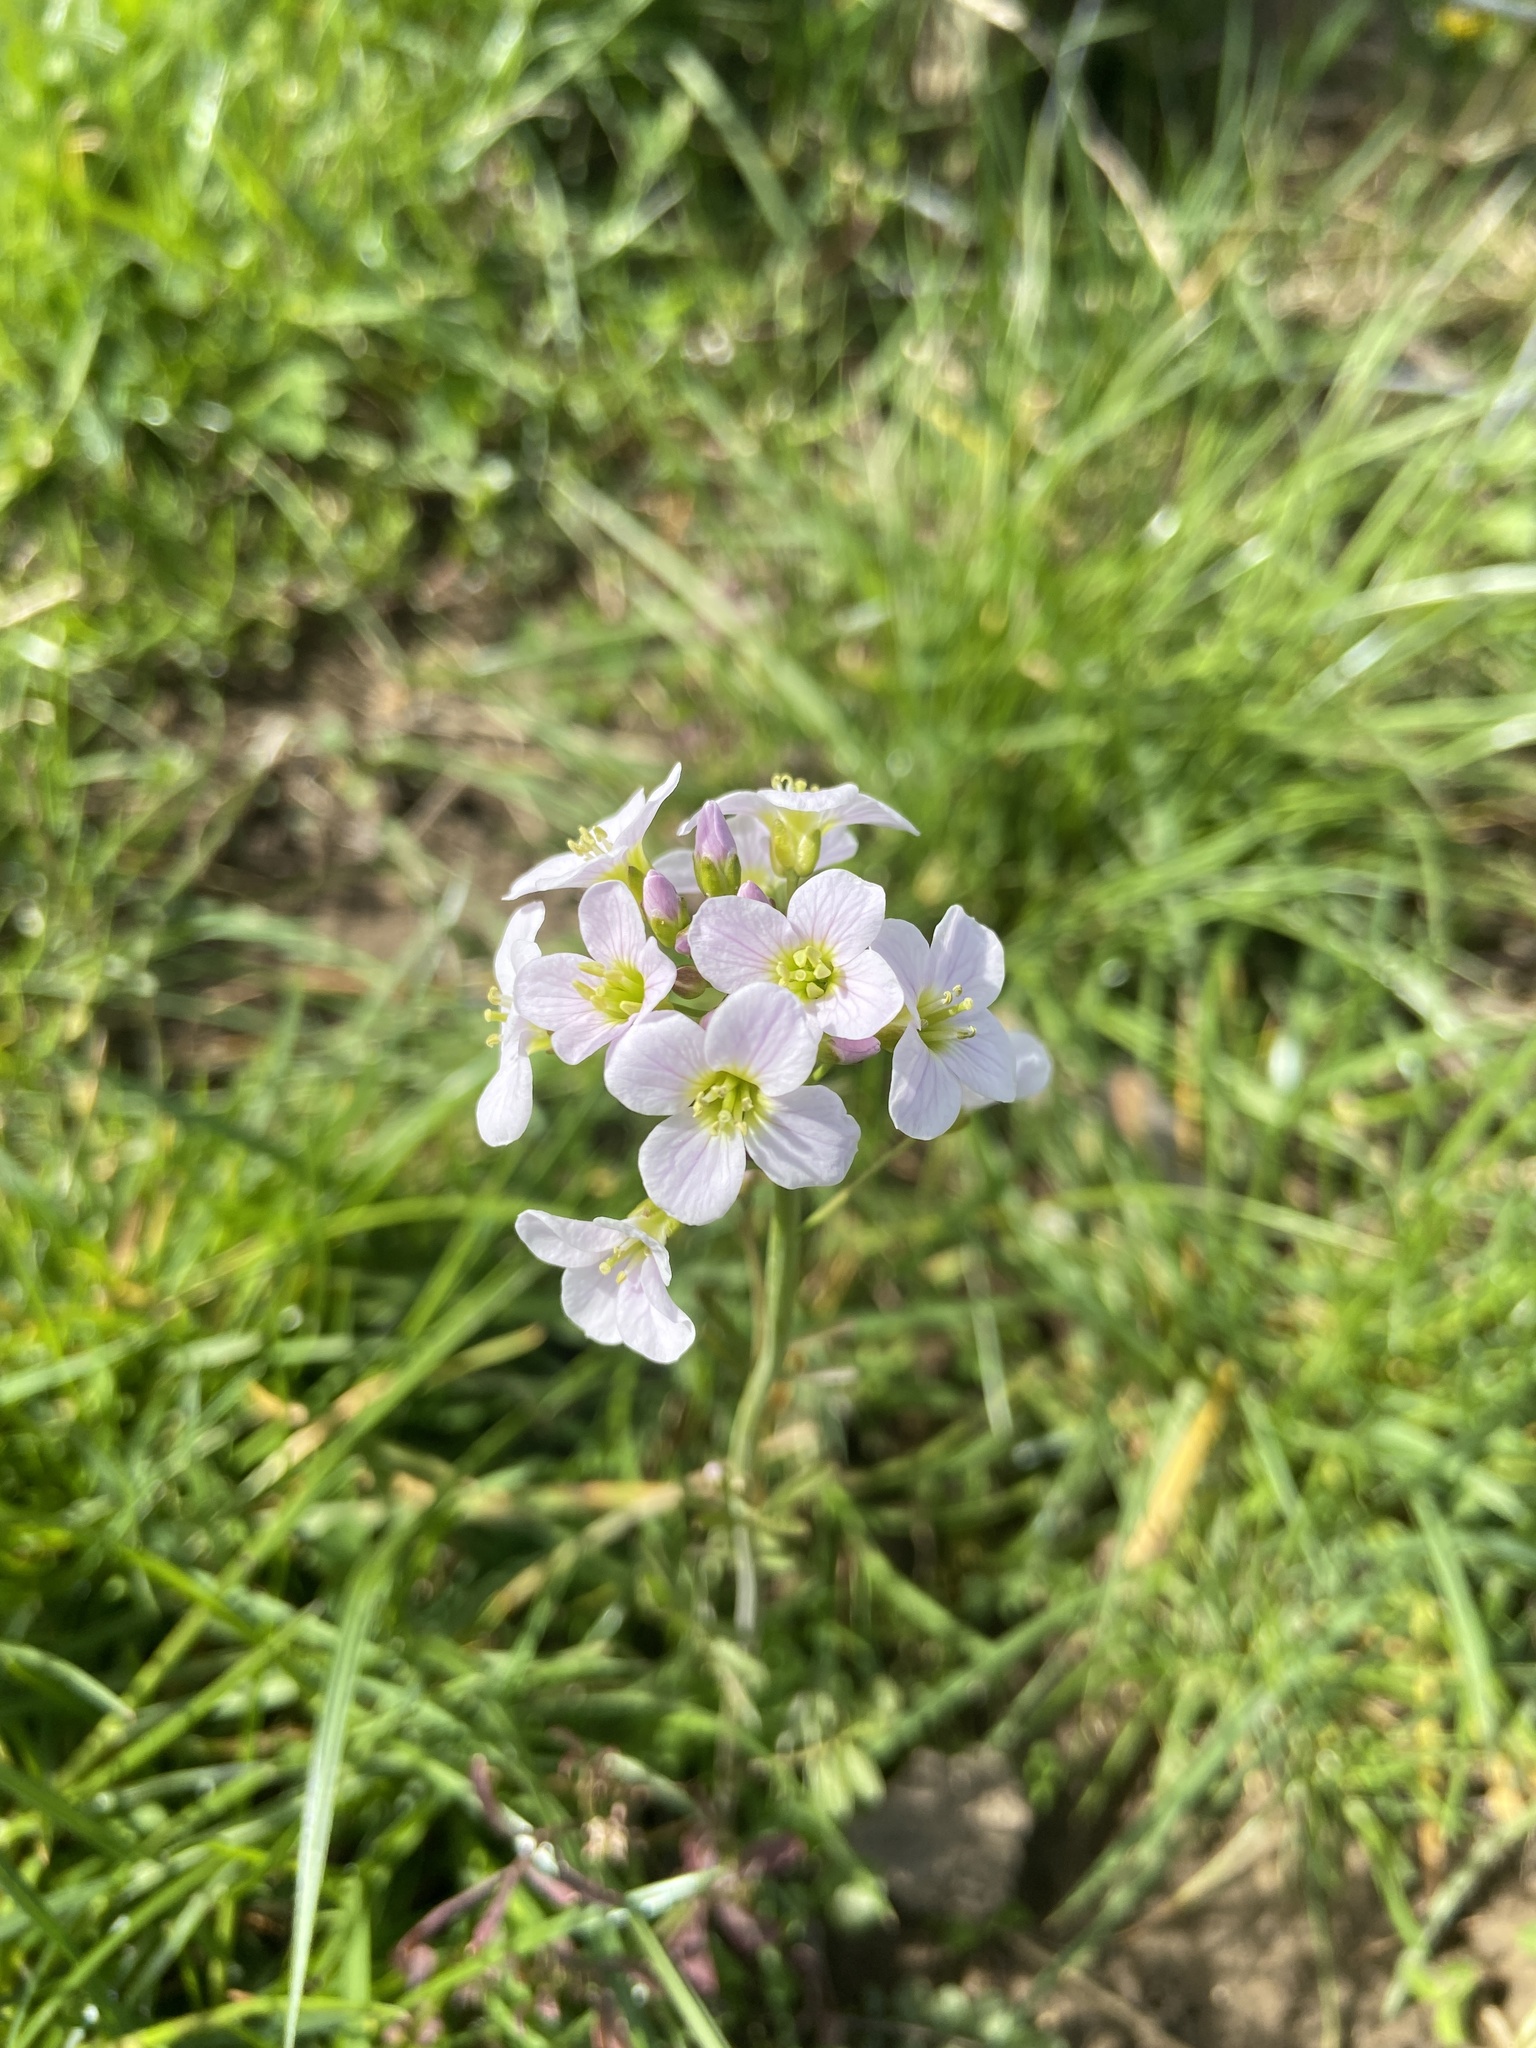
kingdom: Plantae
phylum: Tracheophyta
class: Magnoliopsida
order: Brassicales
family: Brassicaceae
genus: Cardamine
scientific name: Cardamine pratensis
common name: Cuckoo flower
